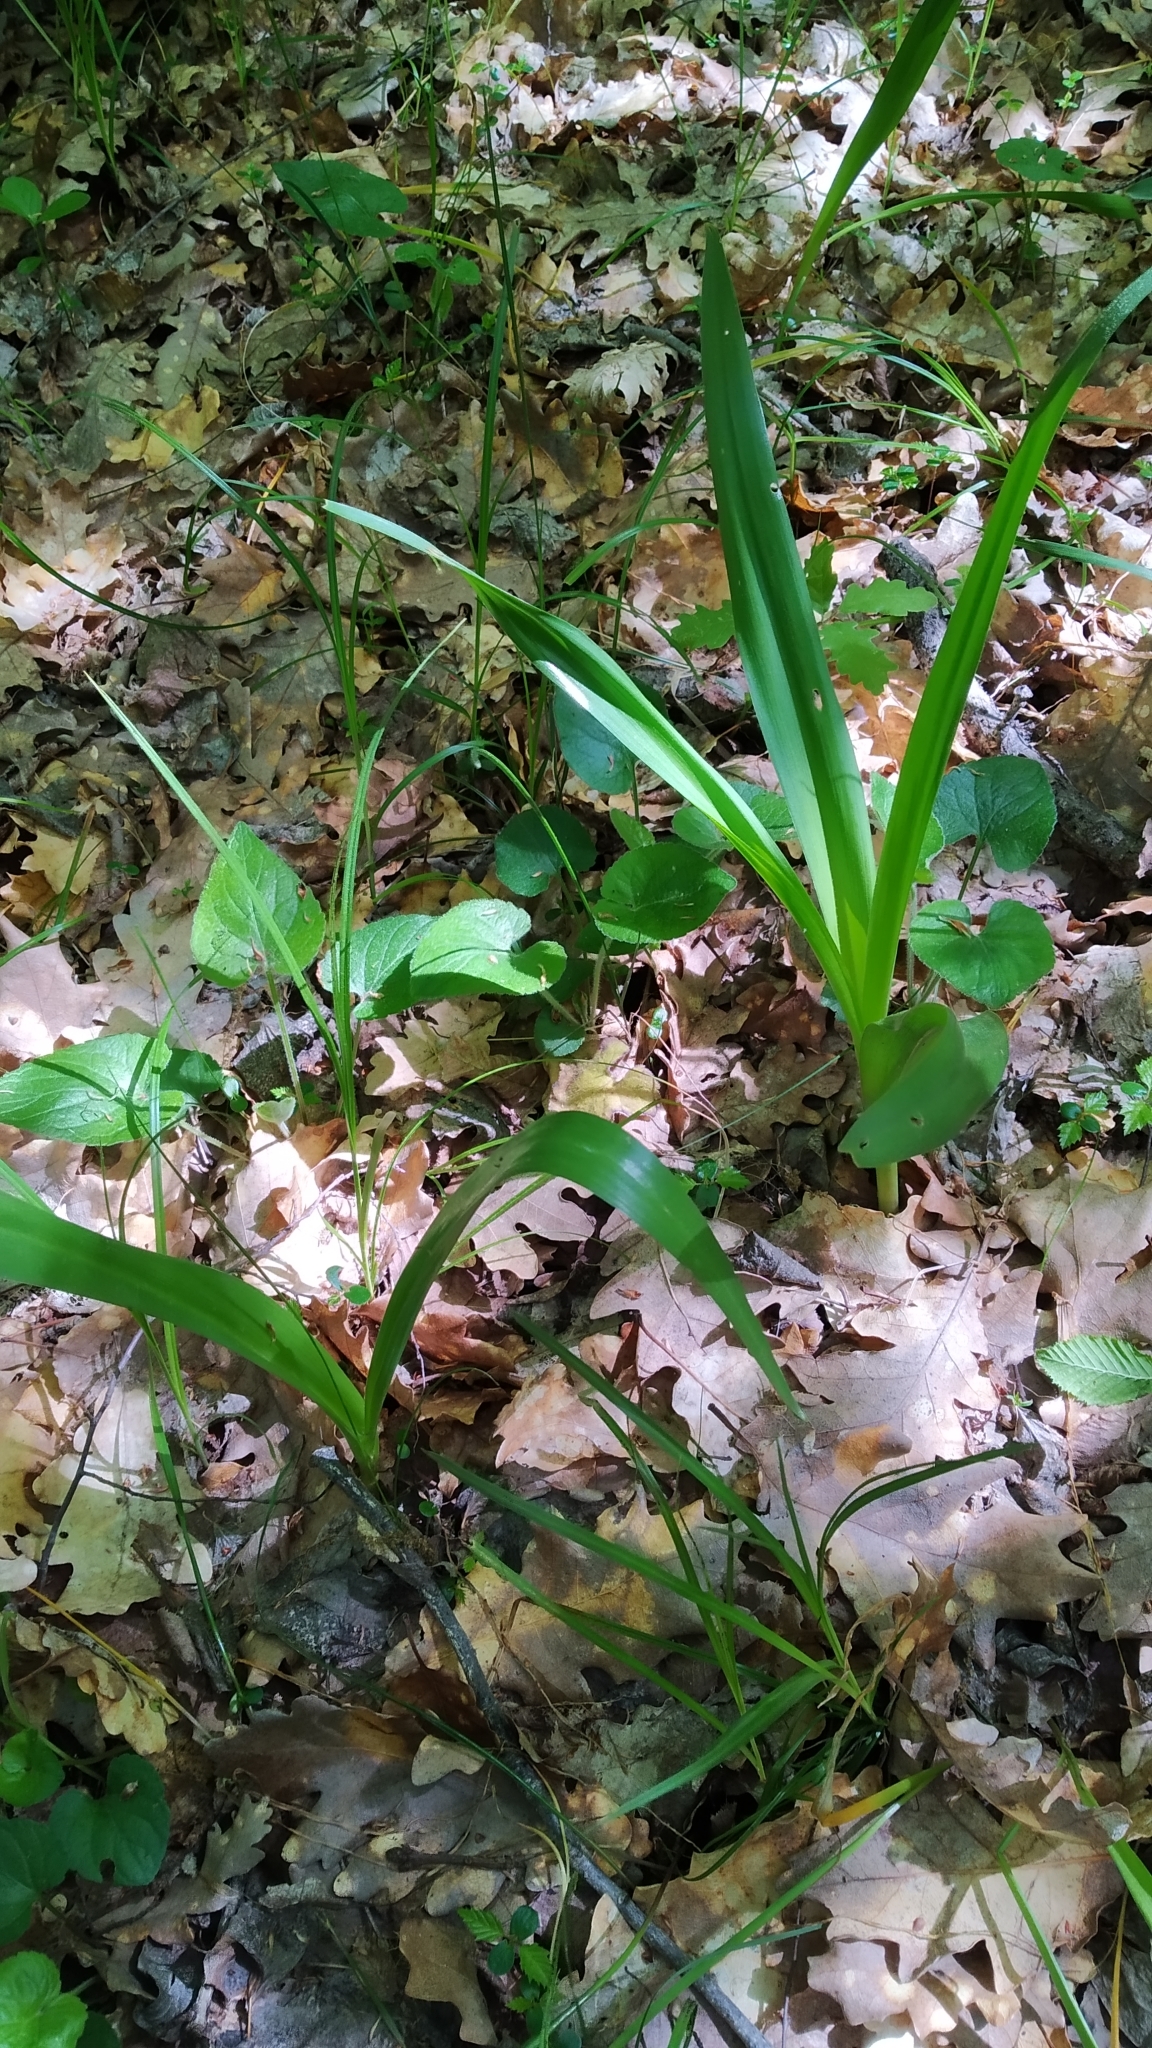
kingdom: Plantae
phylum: Tracheophyta
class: Liliopsida
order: Liliales
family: Colchicaceae
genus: Colchicum
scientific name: Colchicum umbrosum
